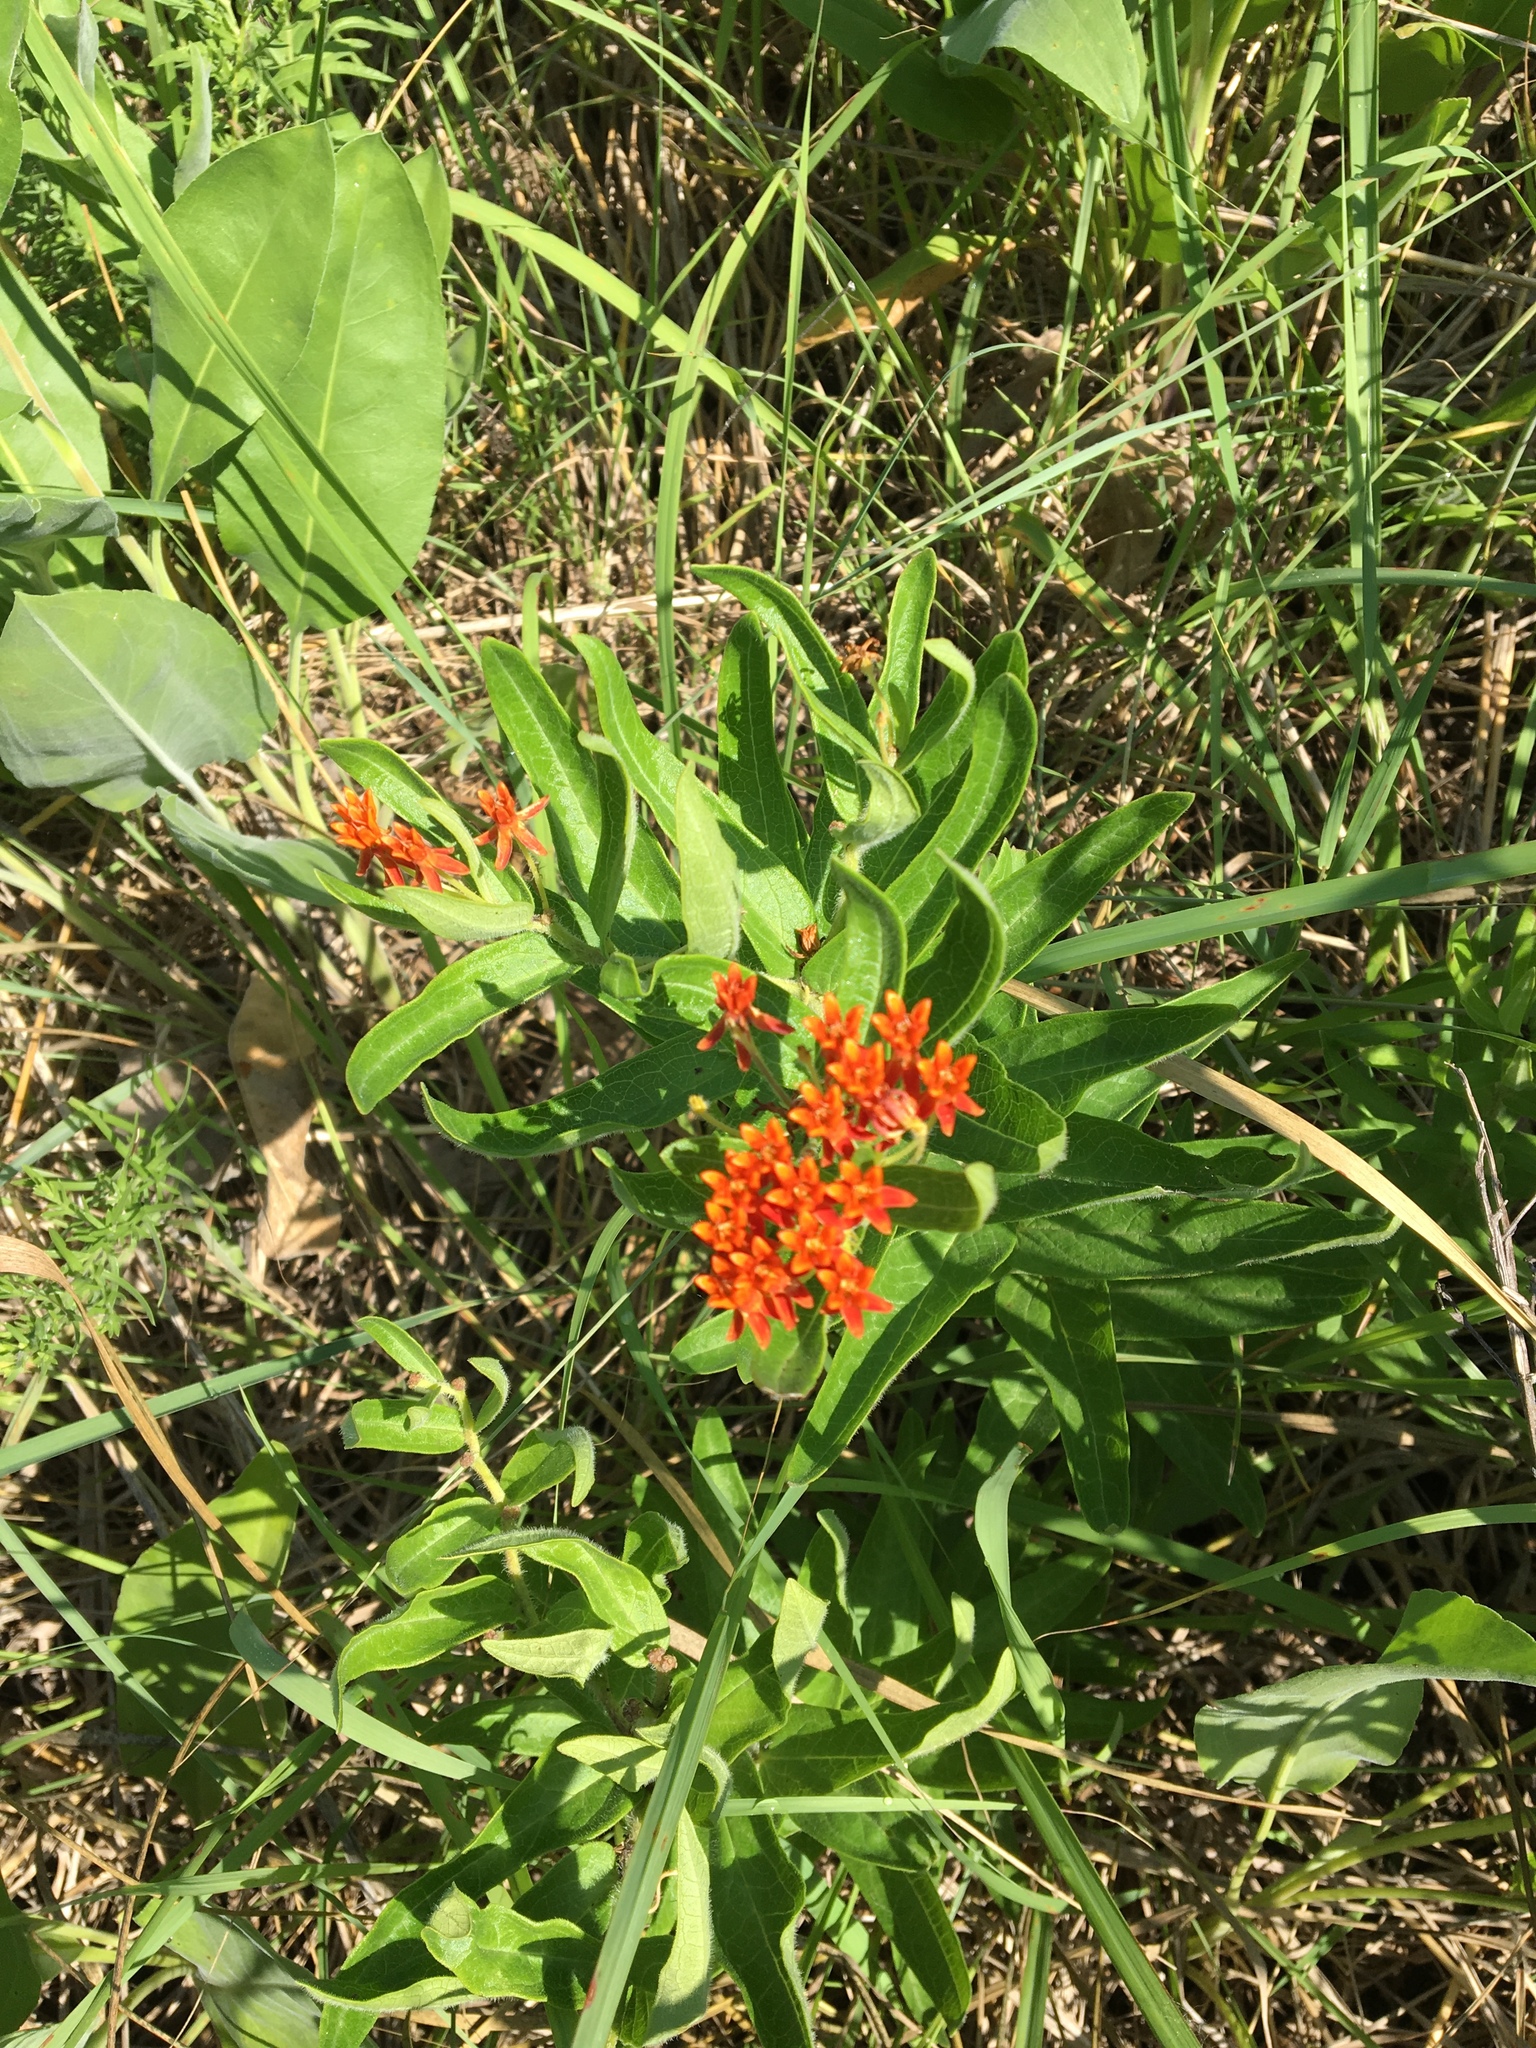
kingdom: Plantae
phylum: Tracheophyta
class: Magnoliopsida
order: Gentianales
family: Apocynaceae
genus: Asclepias
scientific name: Asclepias tuberosa
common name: Butterfly milkweed
